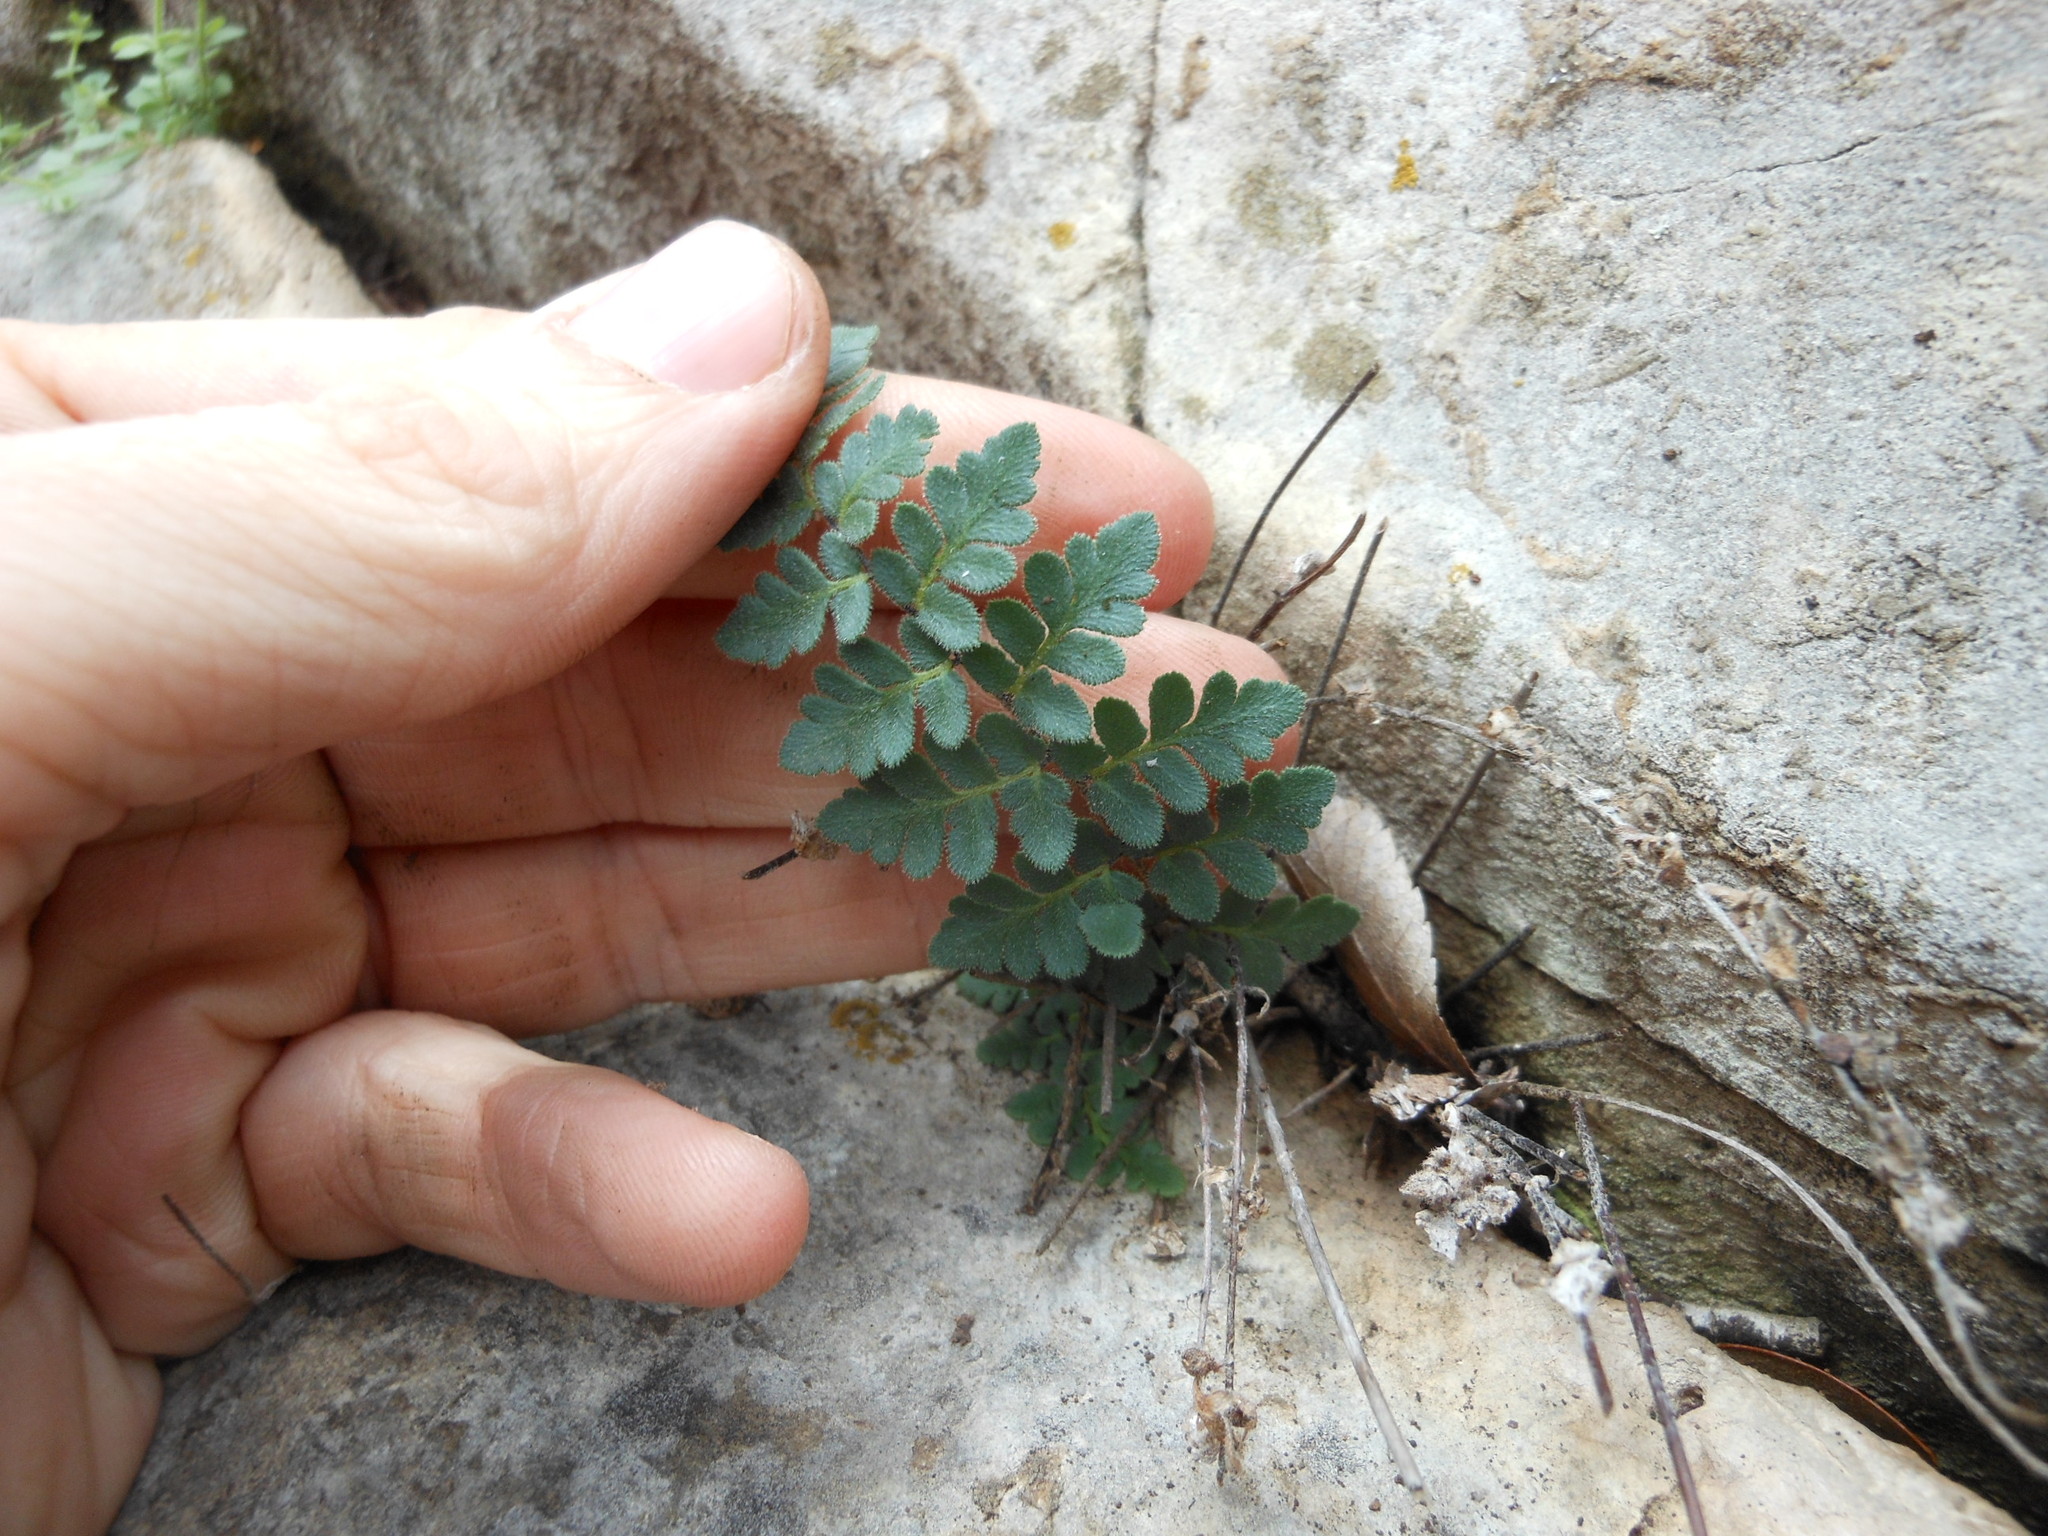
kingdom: Plantae
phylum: Tracheophyta
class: Polypodiopsida
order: Polypodiales
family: Pteridaceae
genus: Myriopteris
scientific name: Myriopteris scabra
